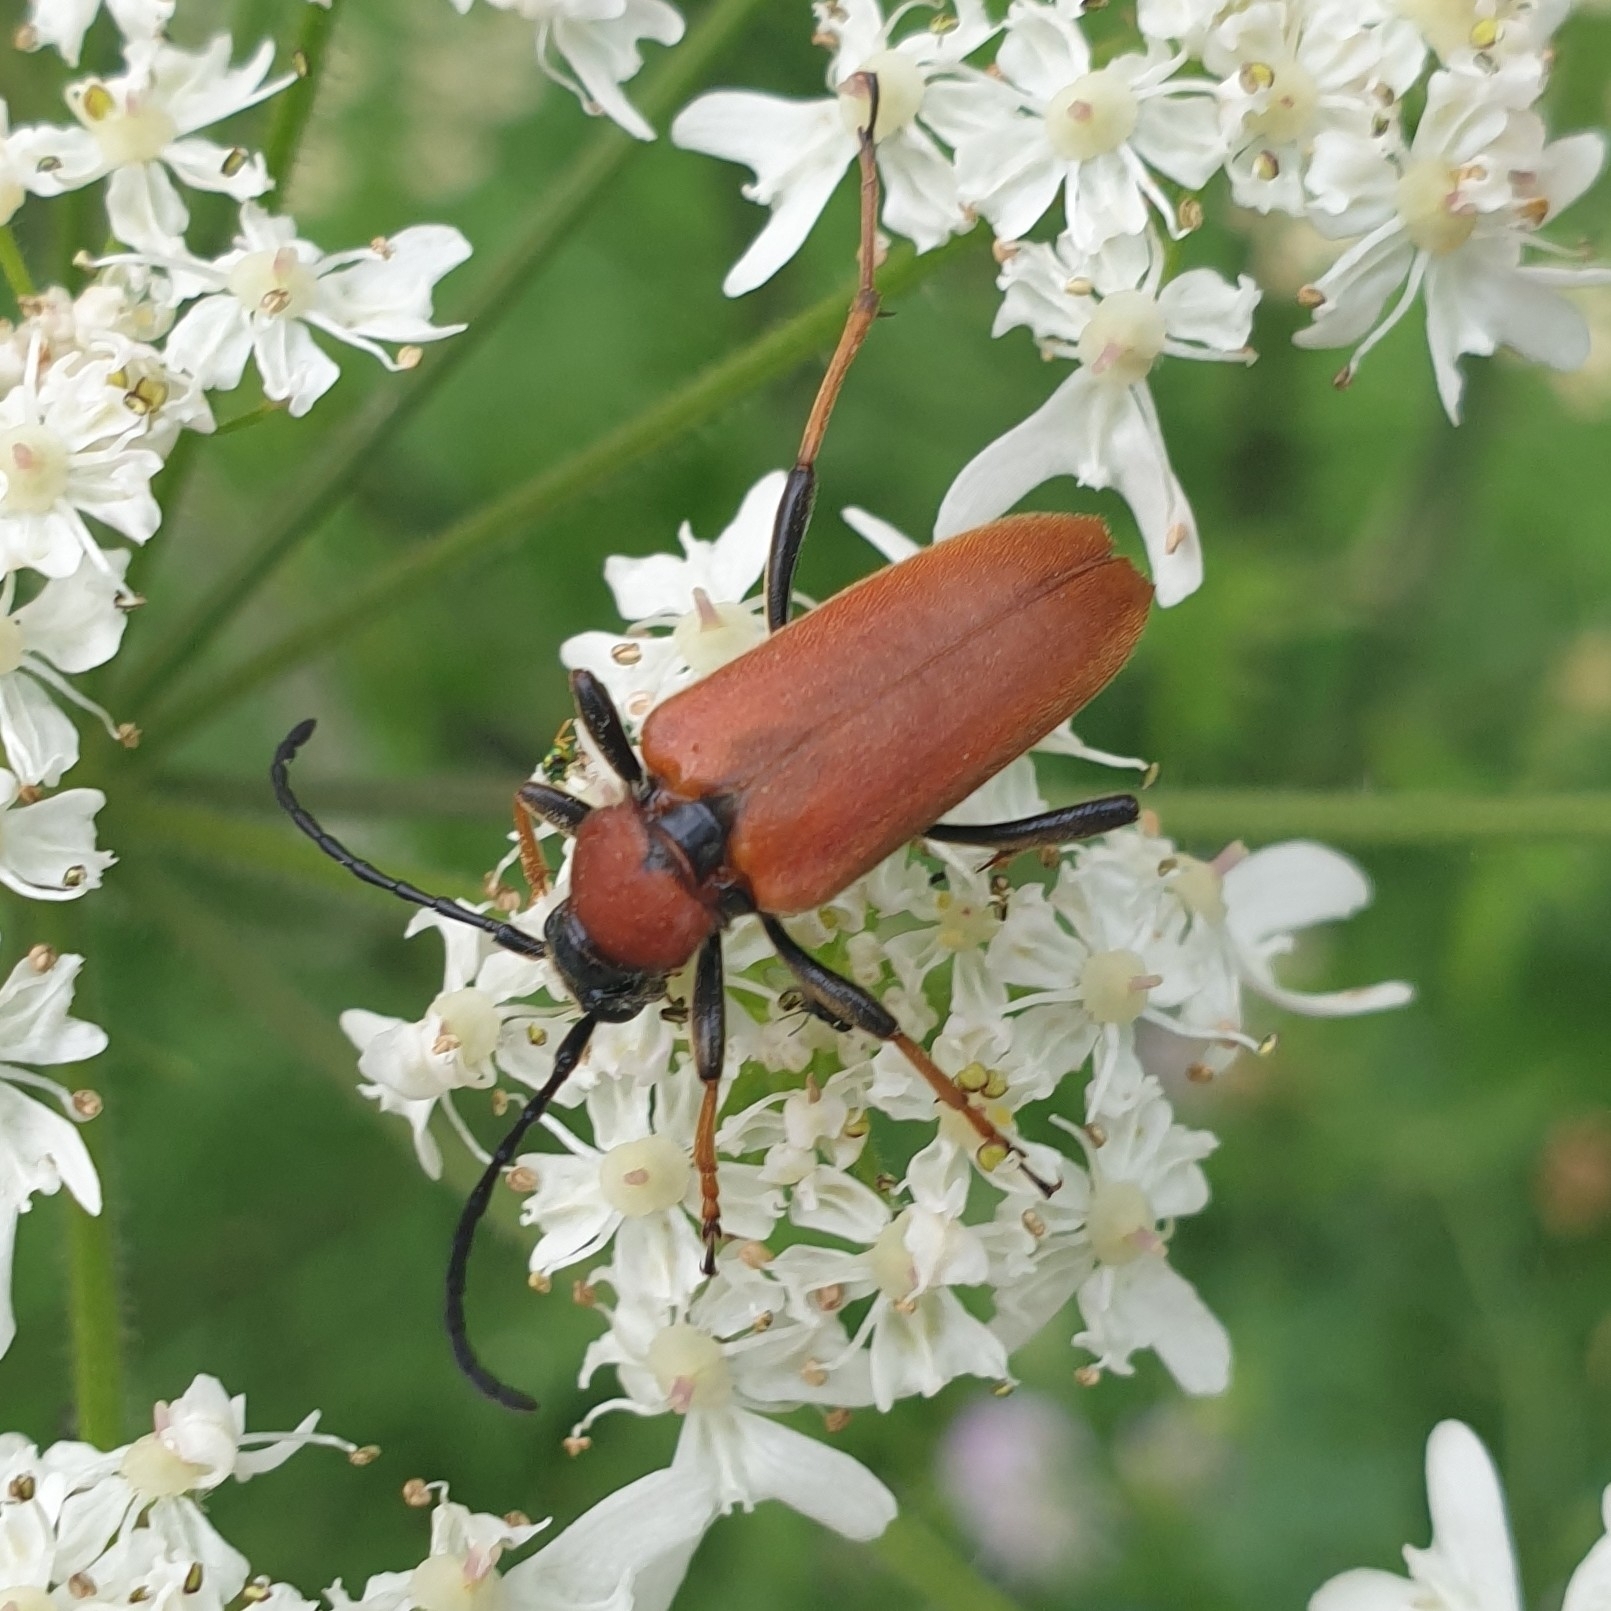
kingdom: Animalia
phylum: Arthropoda
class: Insecta
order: Coleoptera
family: Cerambycidae
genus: Stictoleptura
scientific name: Stictoleptura rubra
